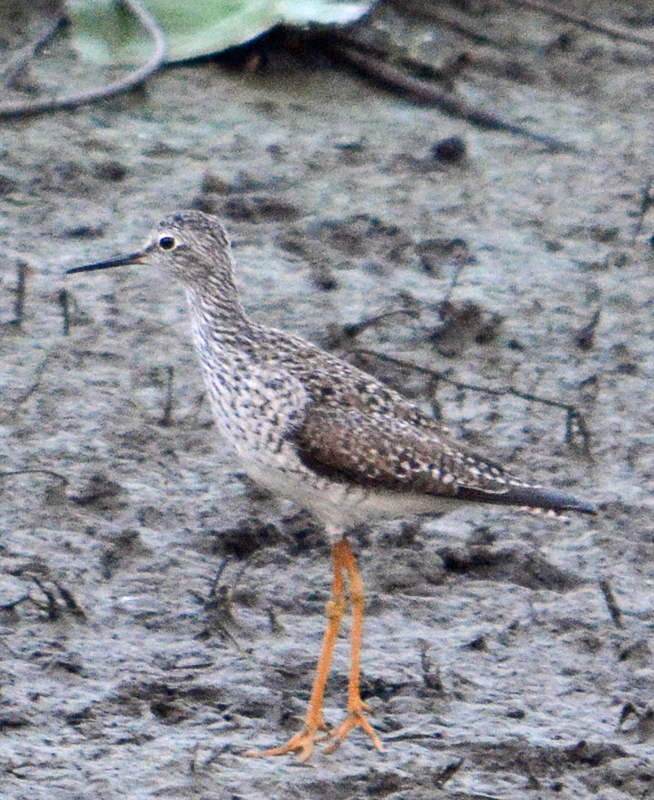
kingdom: Animalia
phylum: Chordata
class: Aves
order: Charadriiformes
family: Scolopacidae
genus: Tringa
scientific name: Tringa flavipes
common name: Lesser yellowlegs
